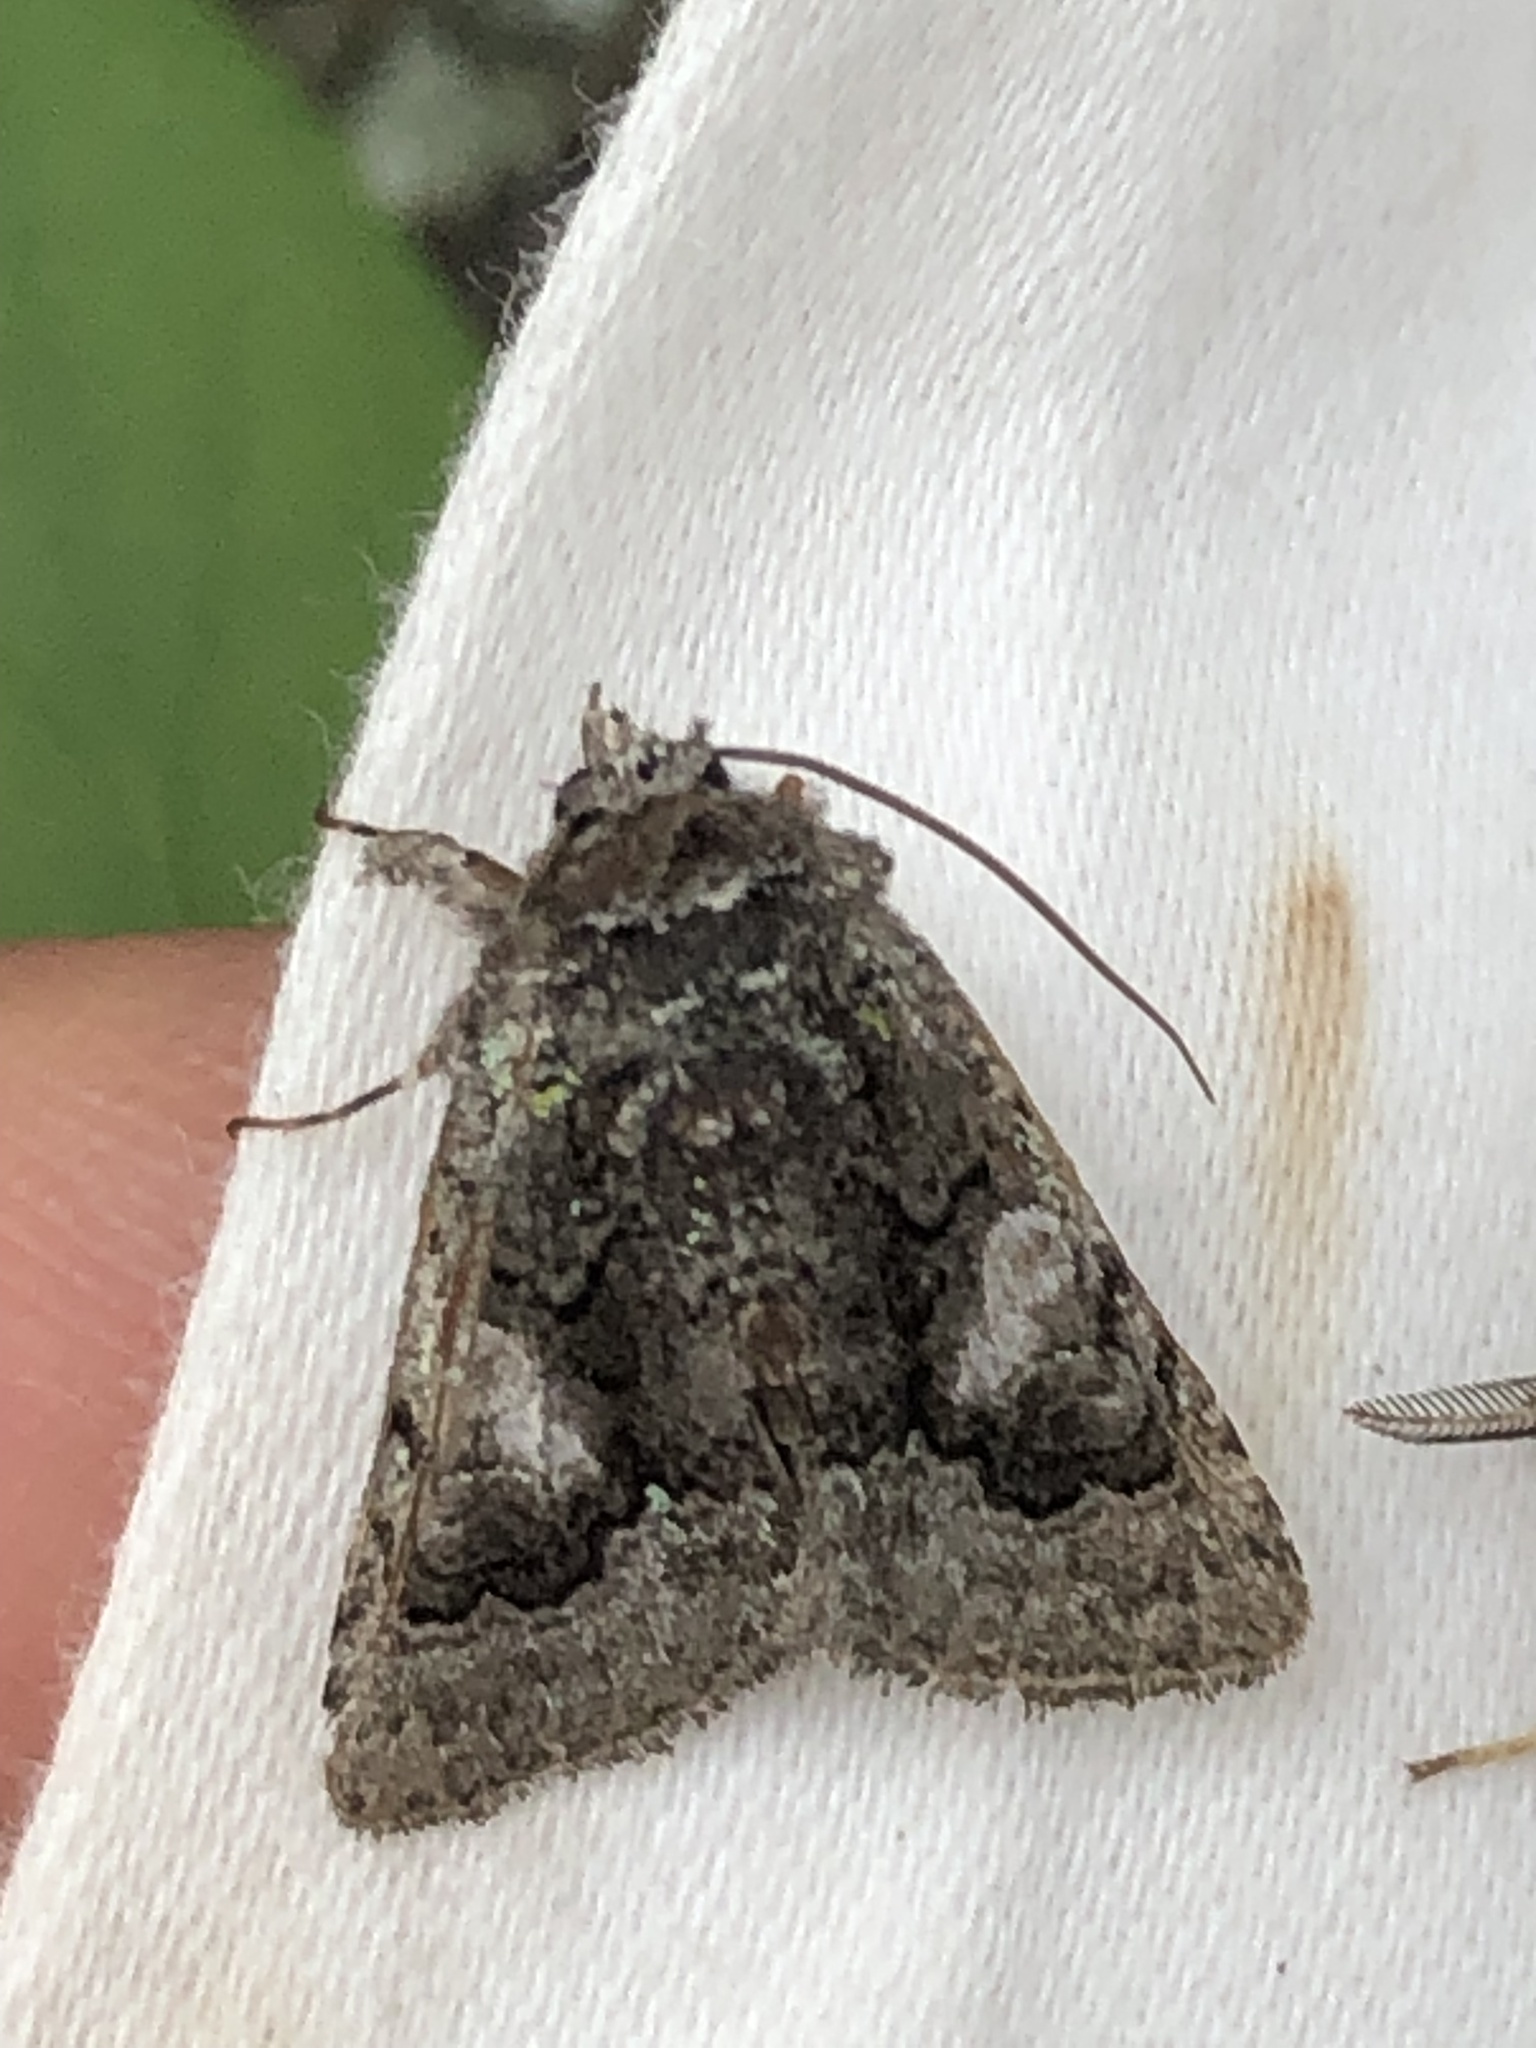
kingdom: Animalia
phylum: Arthropoda
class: Insecta
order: Lepidoptera
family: Noctuidae
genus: Behrensia
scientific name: Behrensia conchiformis
